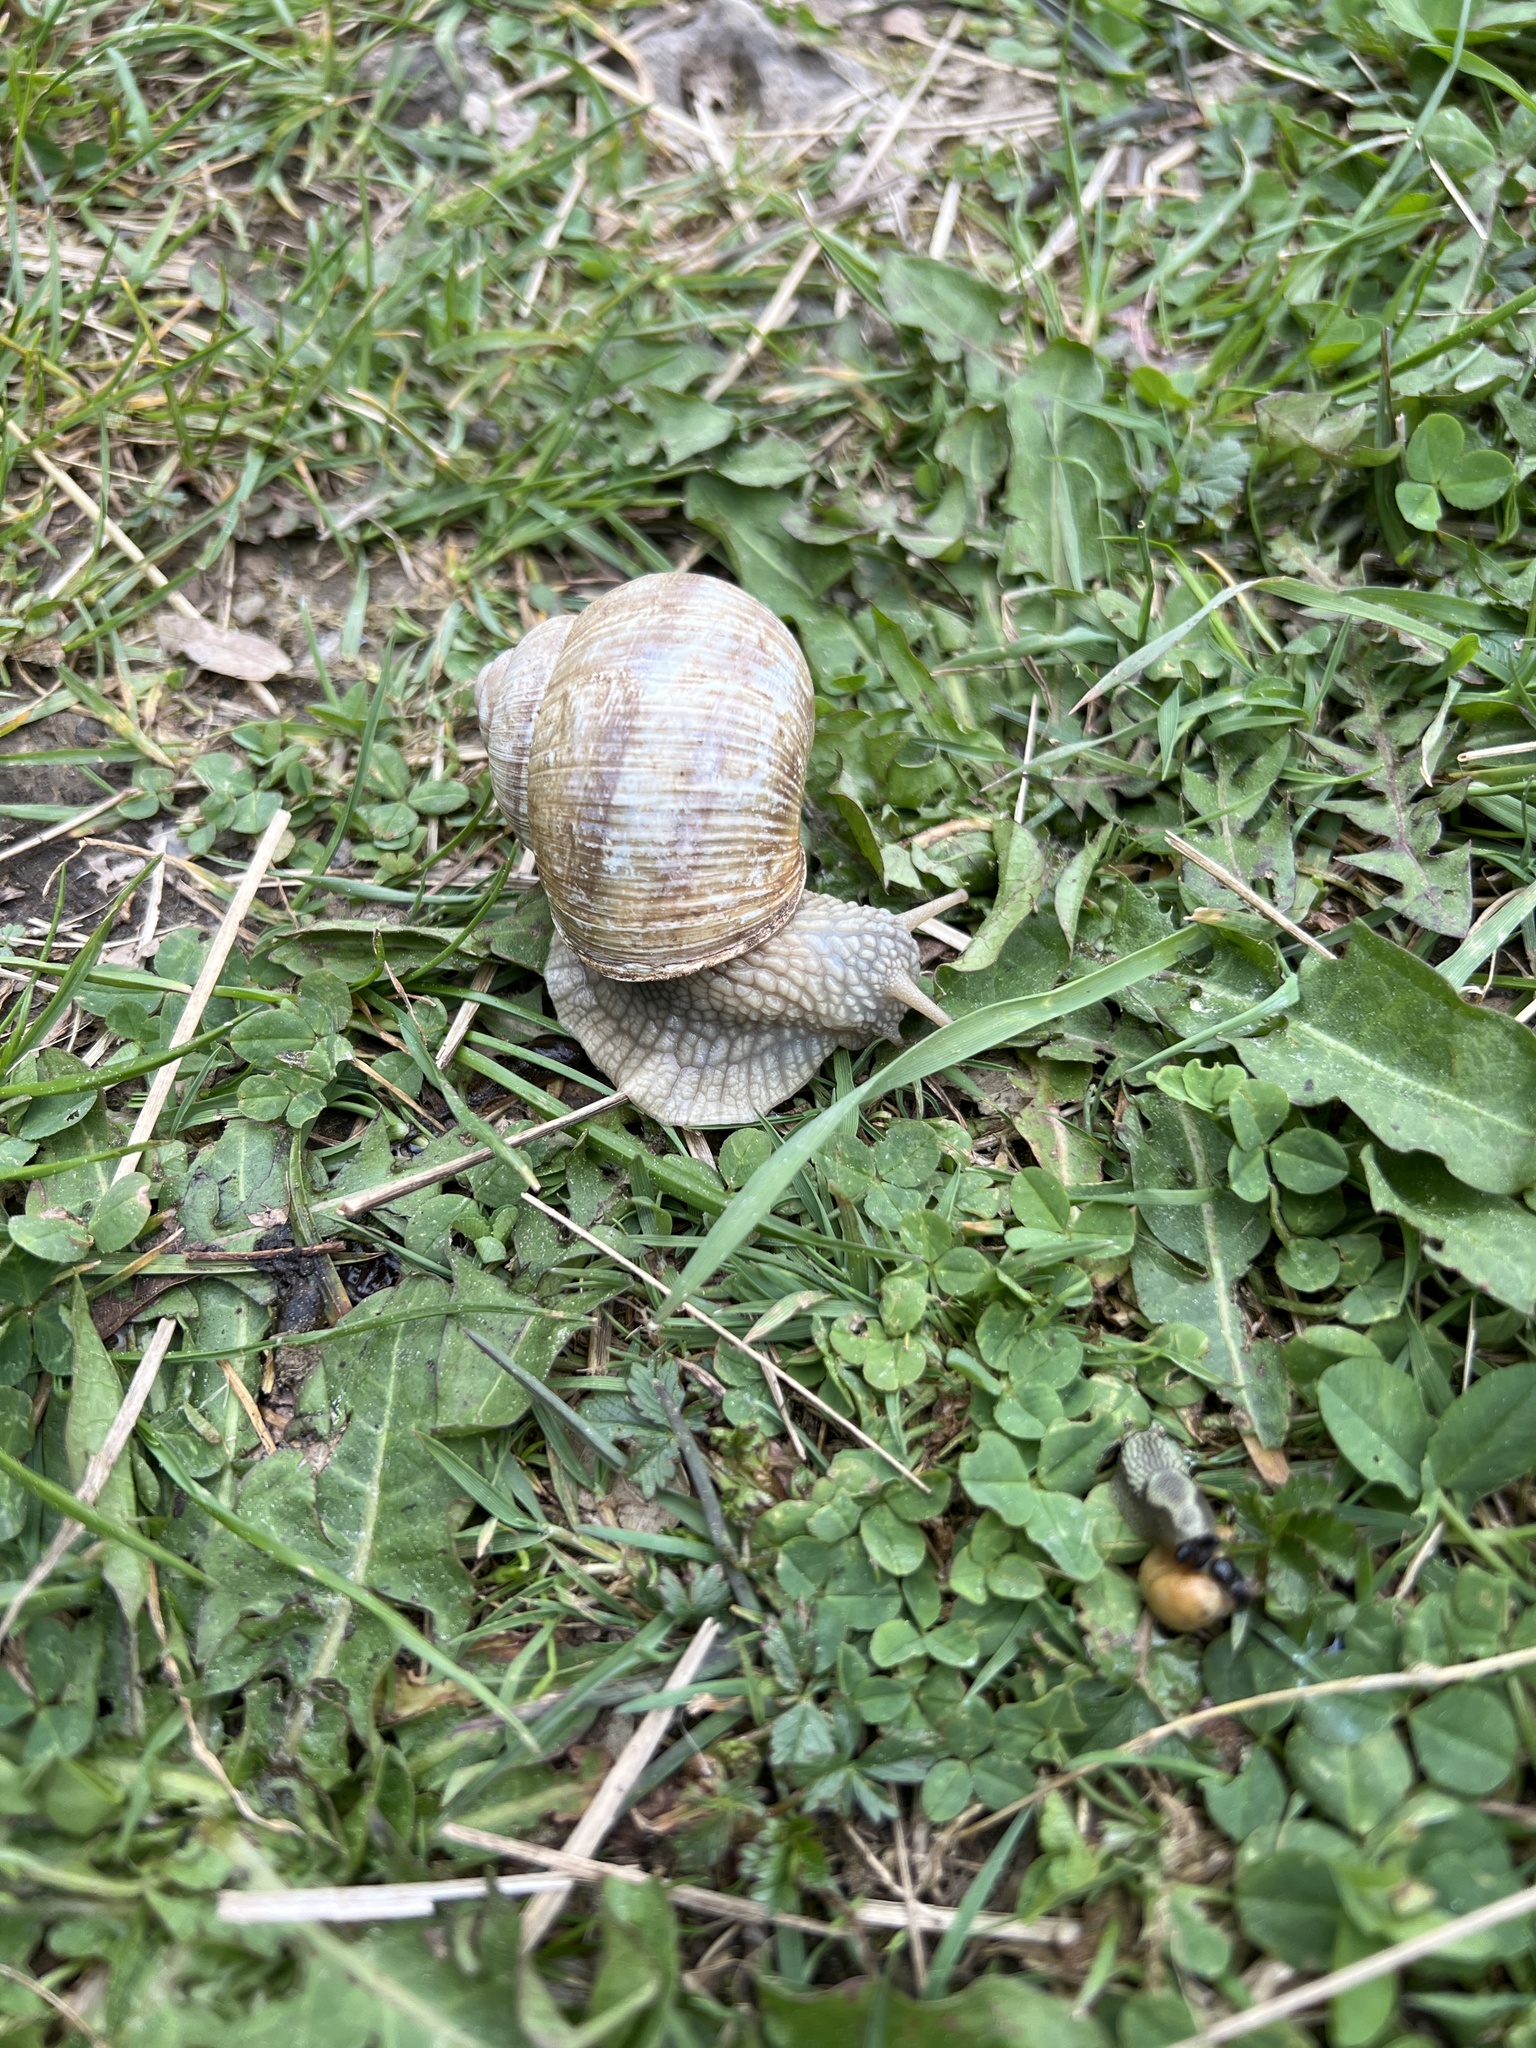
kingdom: Animalia
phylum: Mollusca
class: Gastropoda
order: Stylommatophora
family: Helicidae
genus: Helix
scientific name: Helix pomatia
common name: Roman snail
